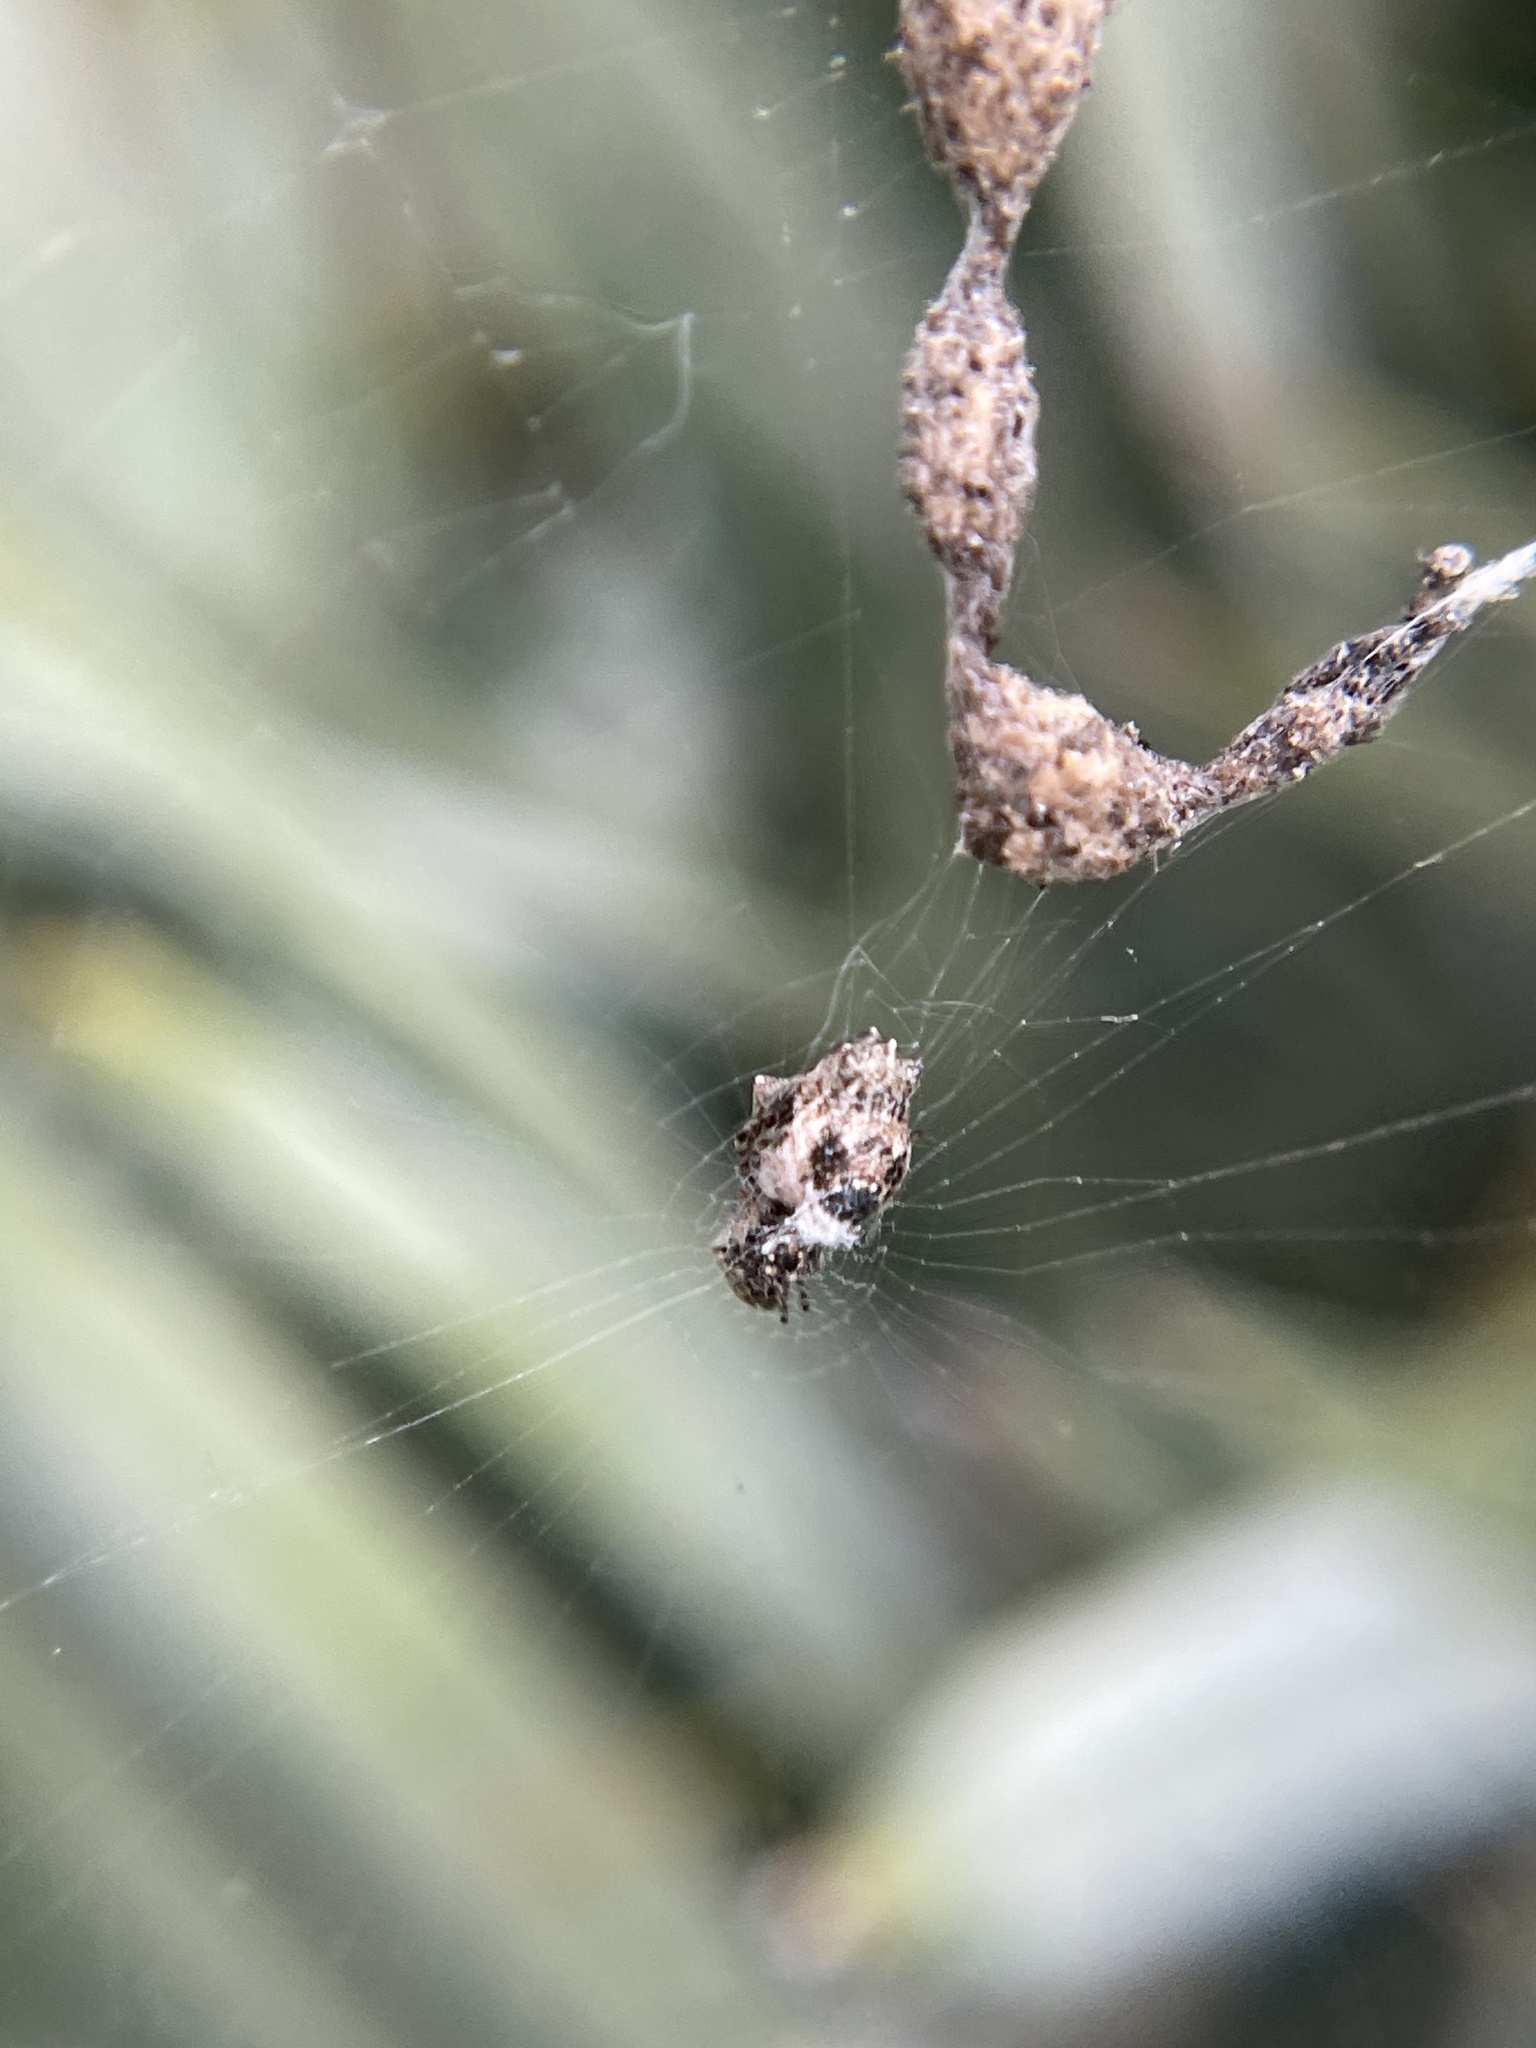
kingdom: Animalia
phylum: Arthropoda
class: Arachnida
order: Araneae
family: Araneidae
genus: Cyclosa
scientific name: Cyclosa walckenaeri
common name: Orb weavers
